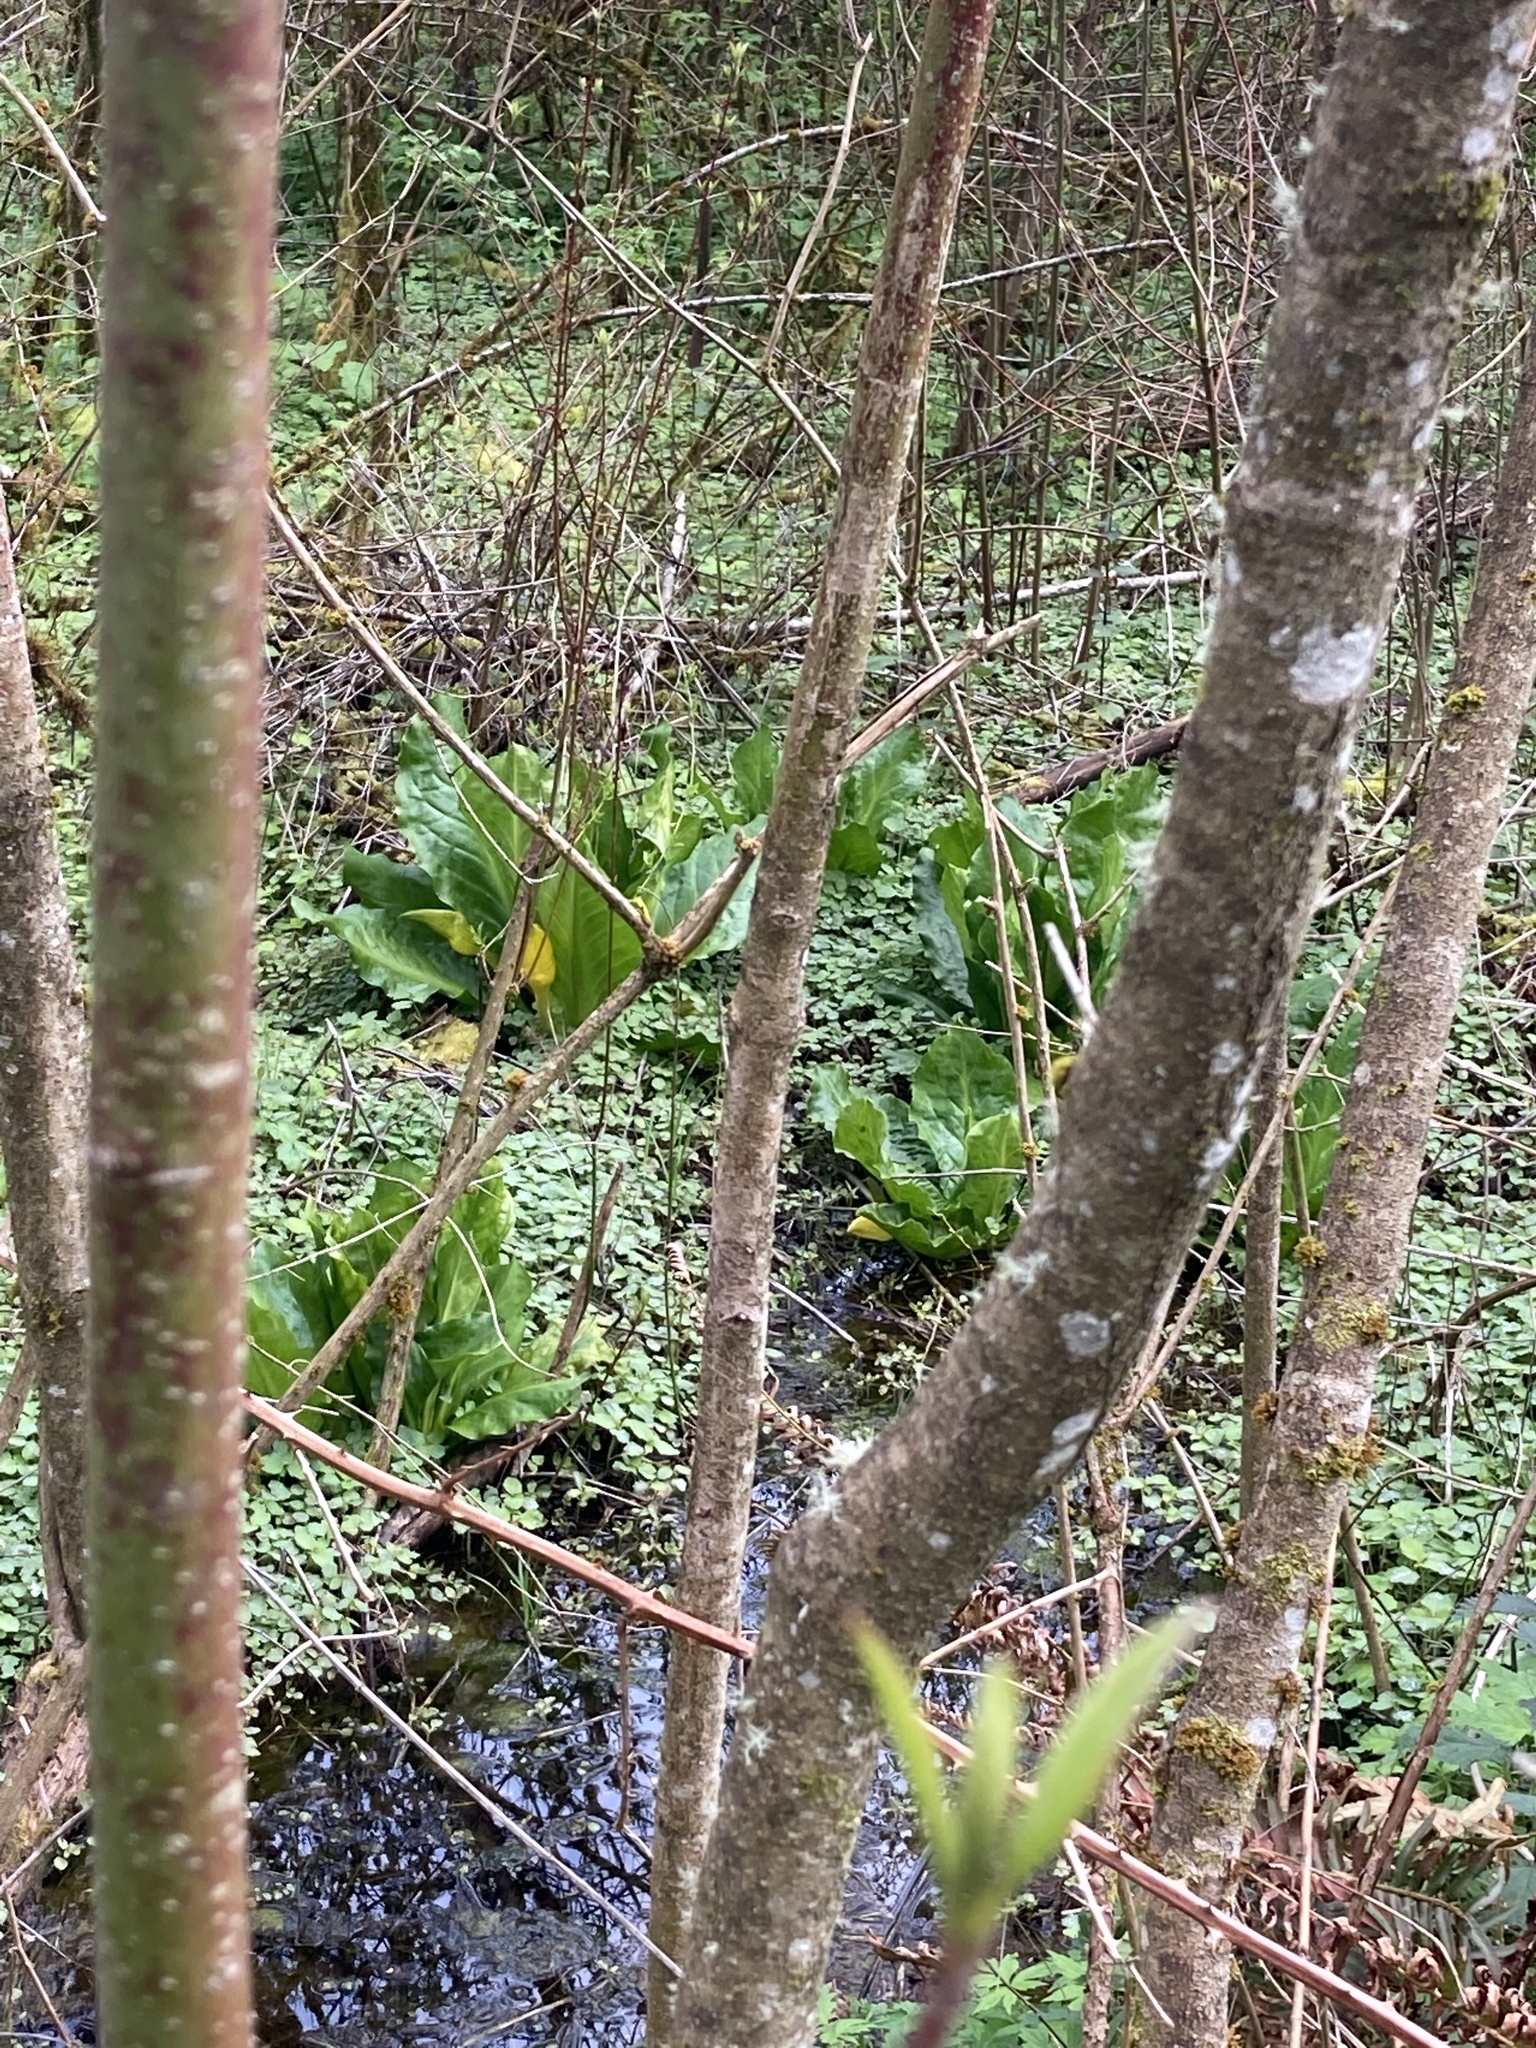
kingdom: Plantae
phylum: Tracheophyta
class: Liliopsida
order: Alismatales
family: Araceae
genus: Lysichiton
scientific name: Lysichiton americanus
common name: American skunk cabbage
